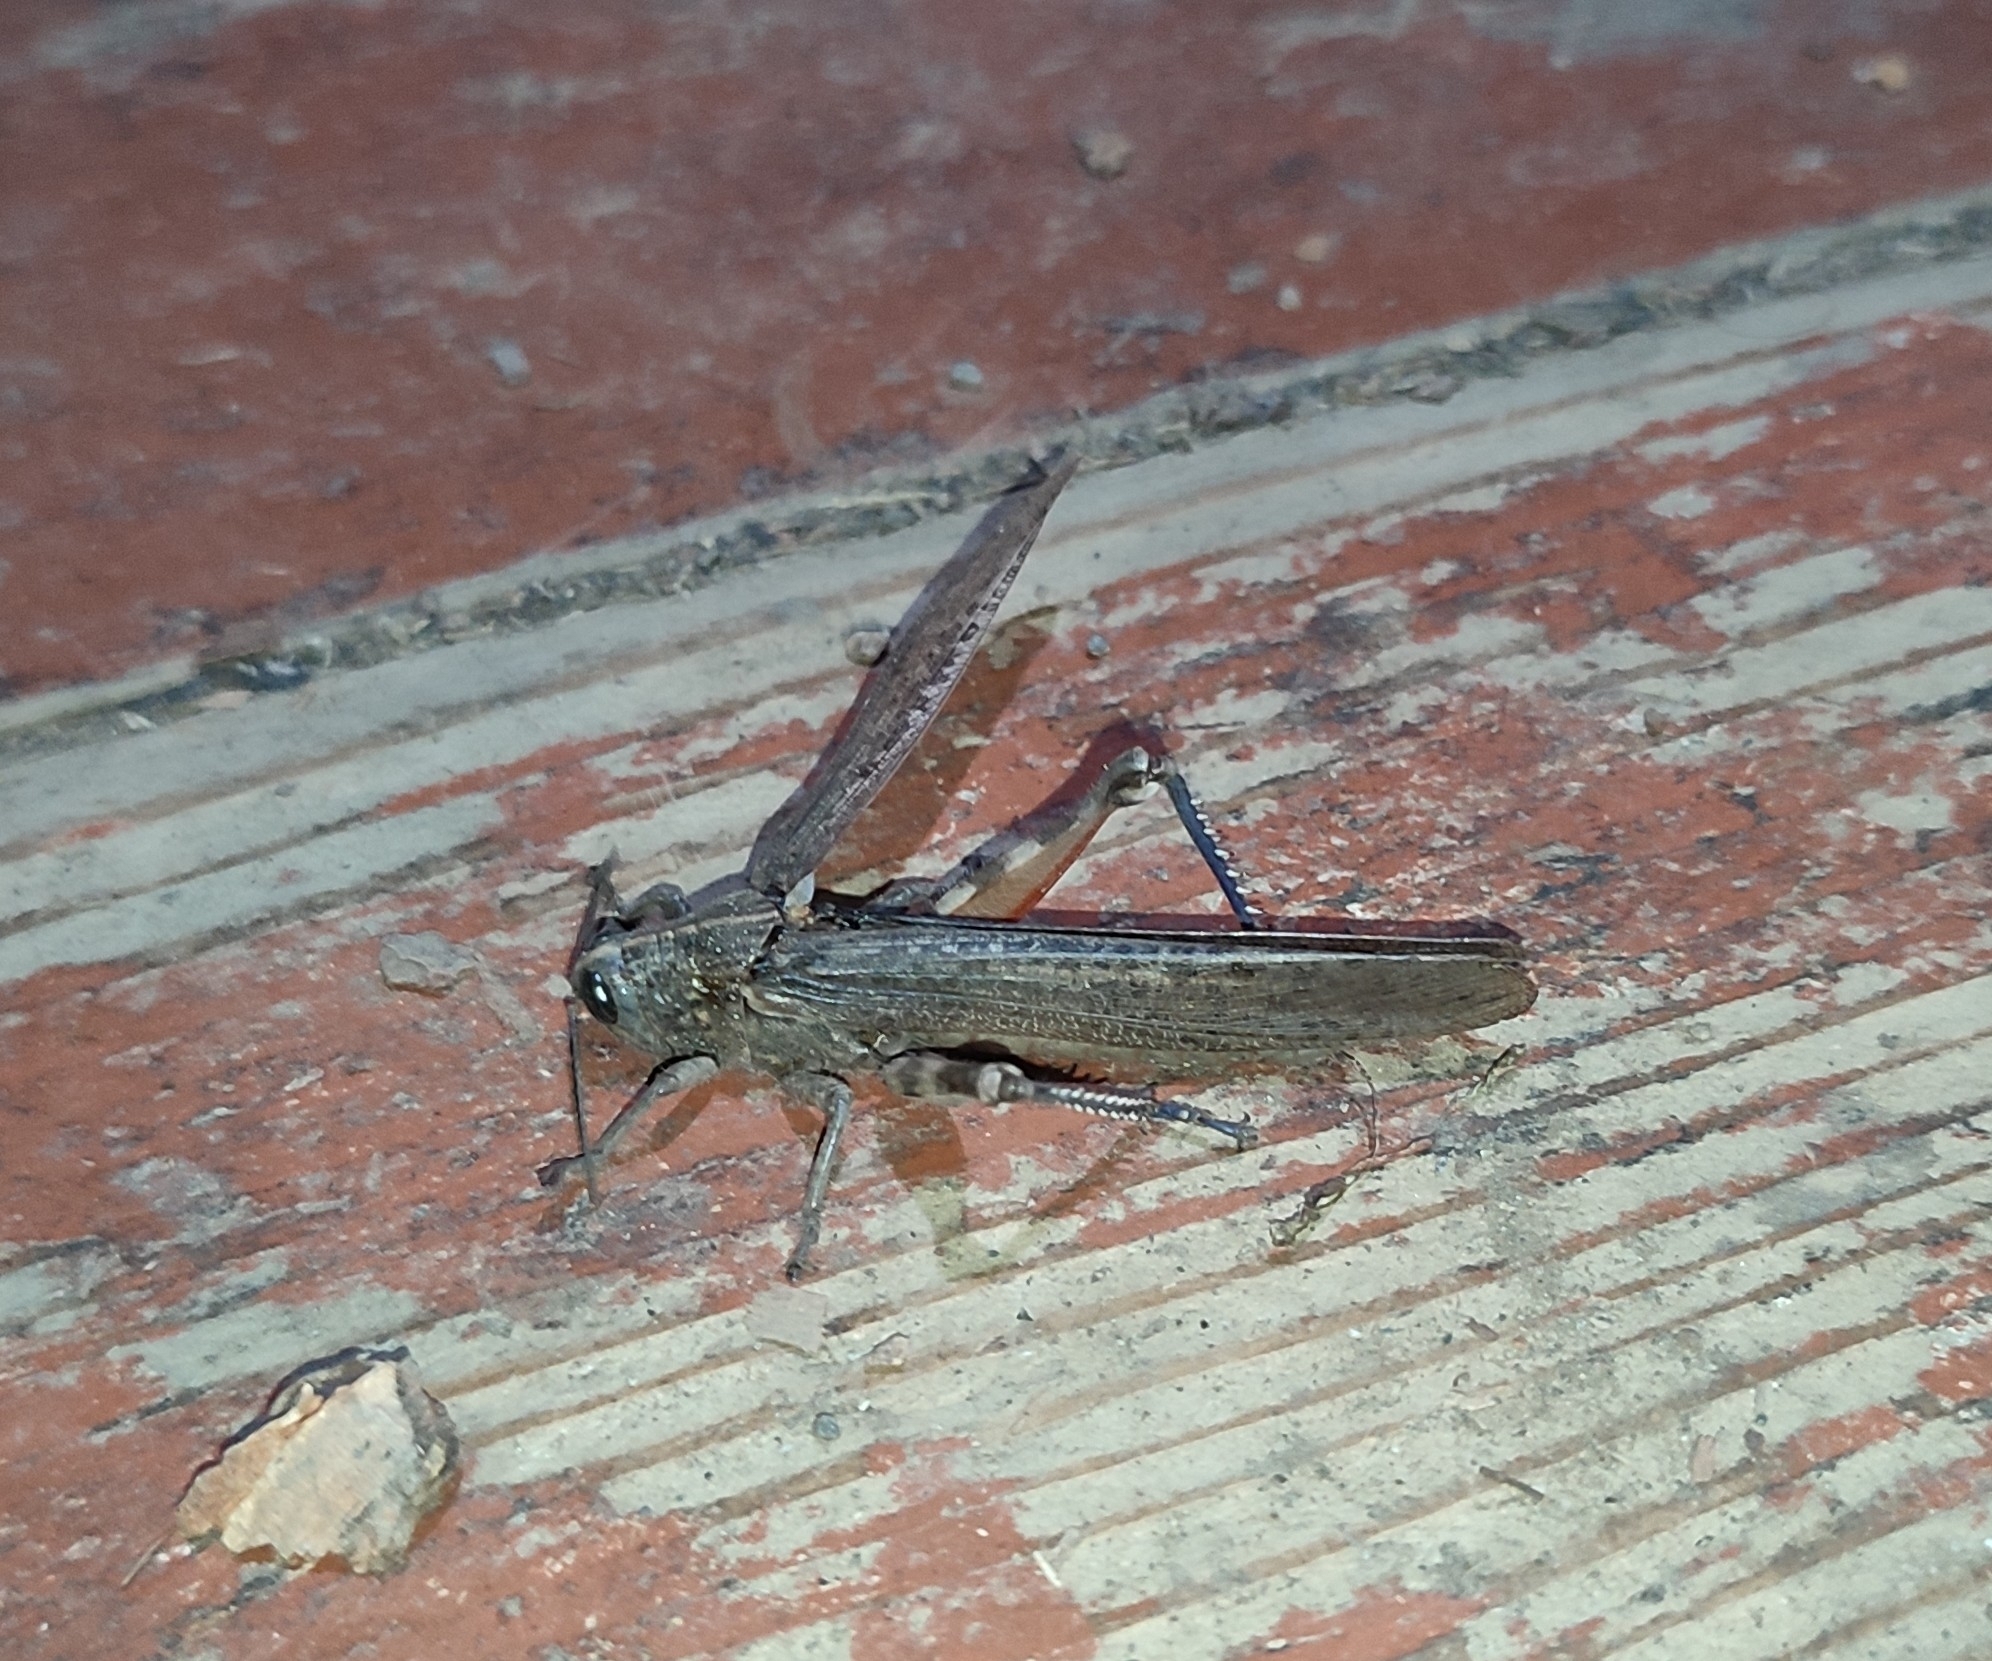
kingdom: Animalia
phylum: Arthropoda
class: Insecta
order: Orthoptera
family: Acrididae
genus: Anacridium
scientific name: Anacridium aegyptium
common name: Egyptian grasshopper
